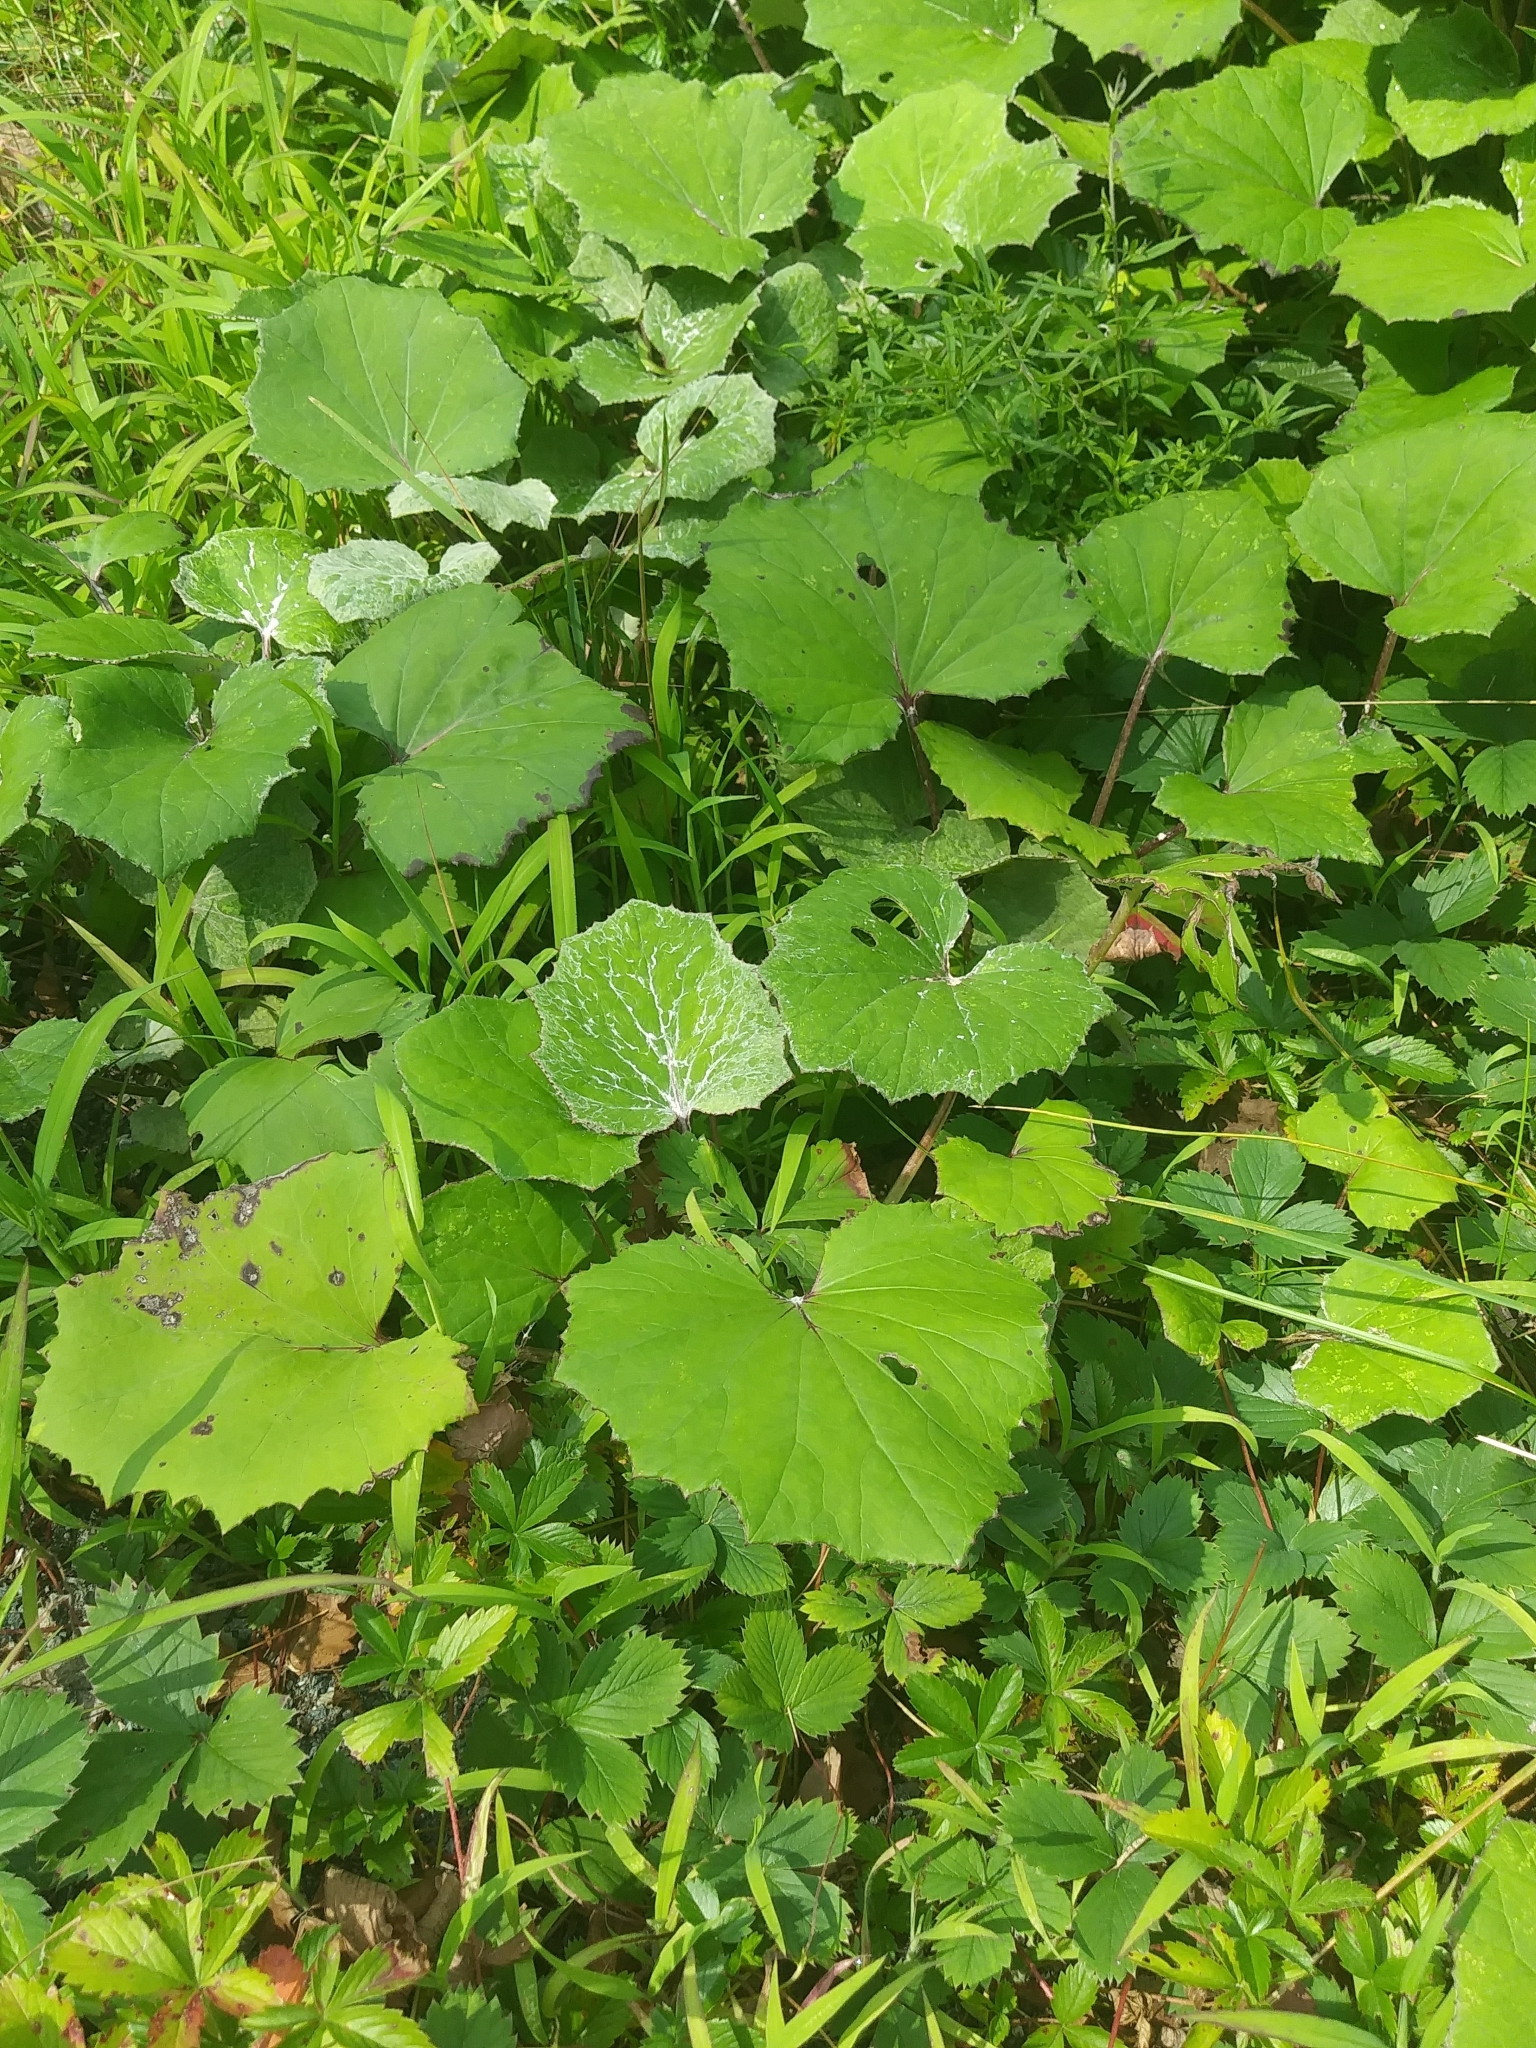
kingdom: Plantae
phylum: Tracheophyta
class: Magnoliopsida
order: Asterales
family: Asteraceae
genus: Tussilago
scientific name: Tussilago farfara
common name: Coltsfoot
